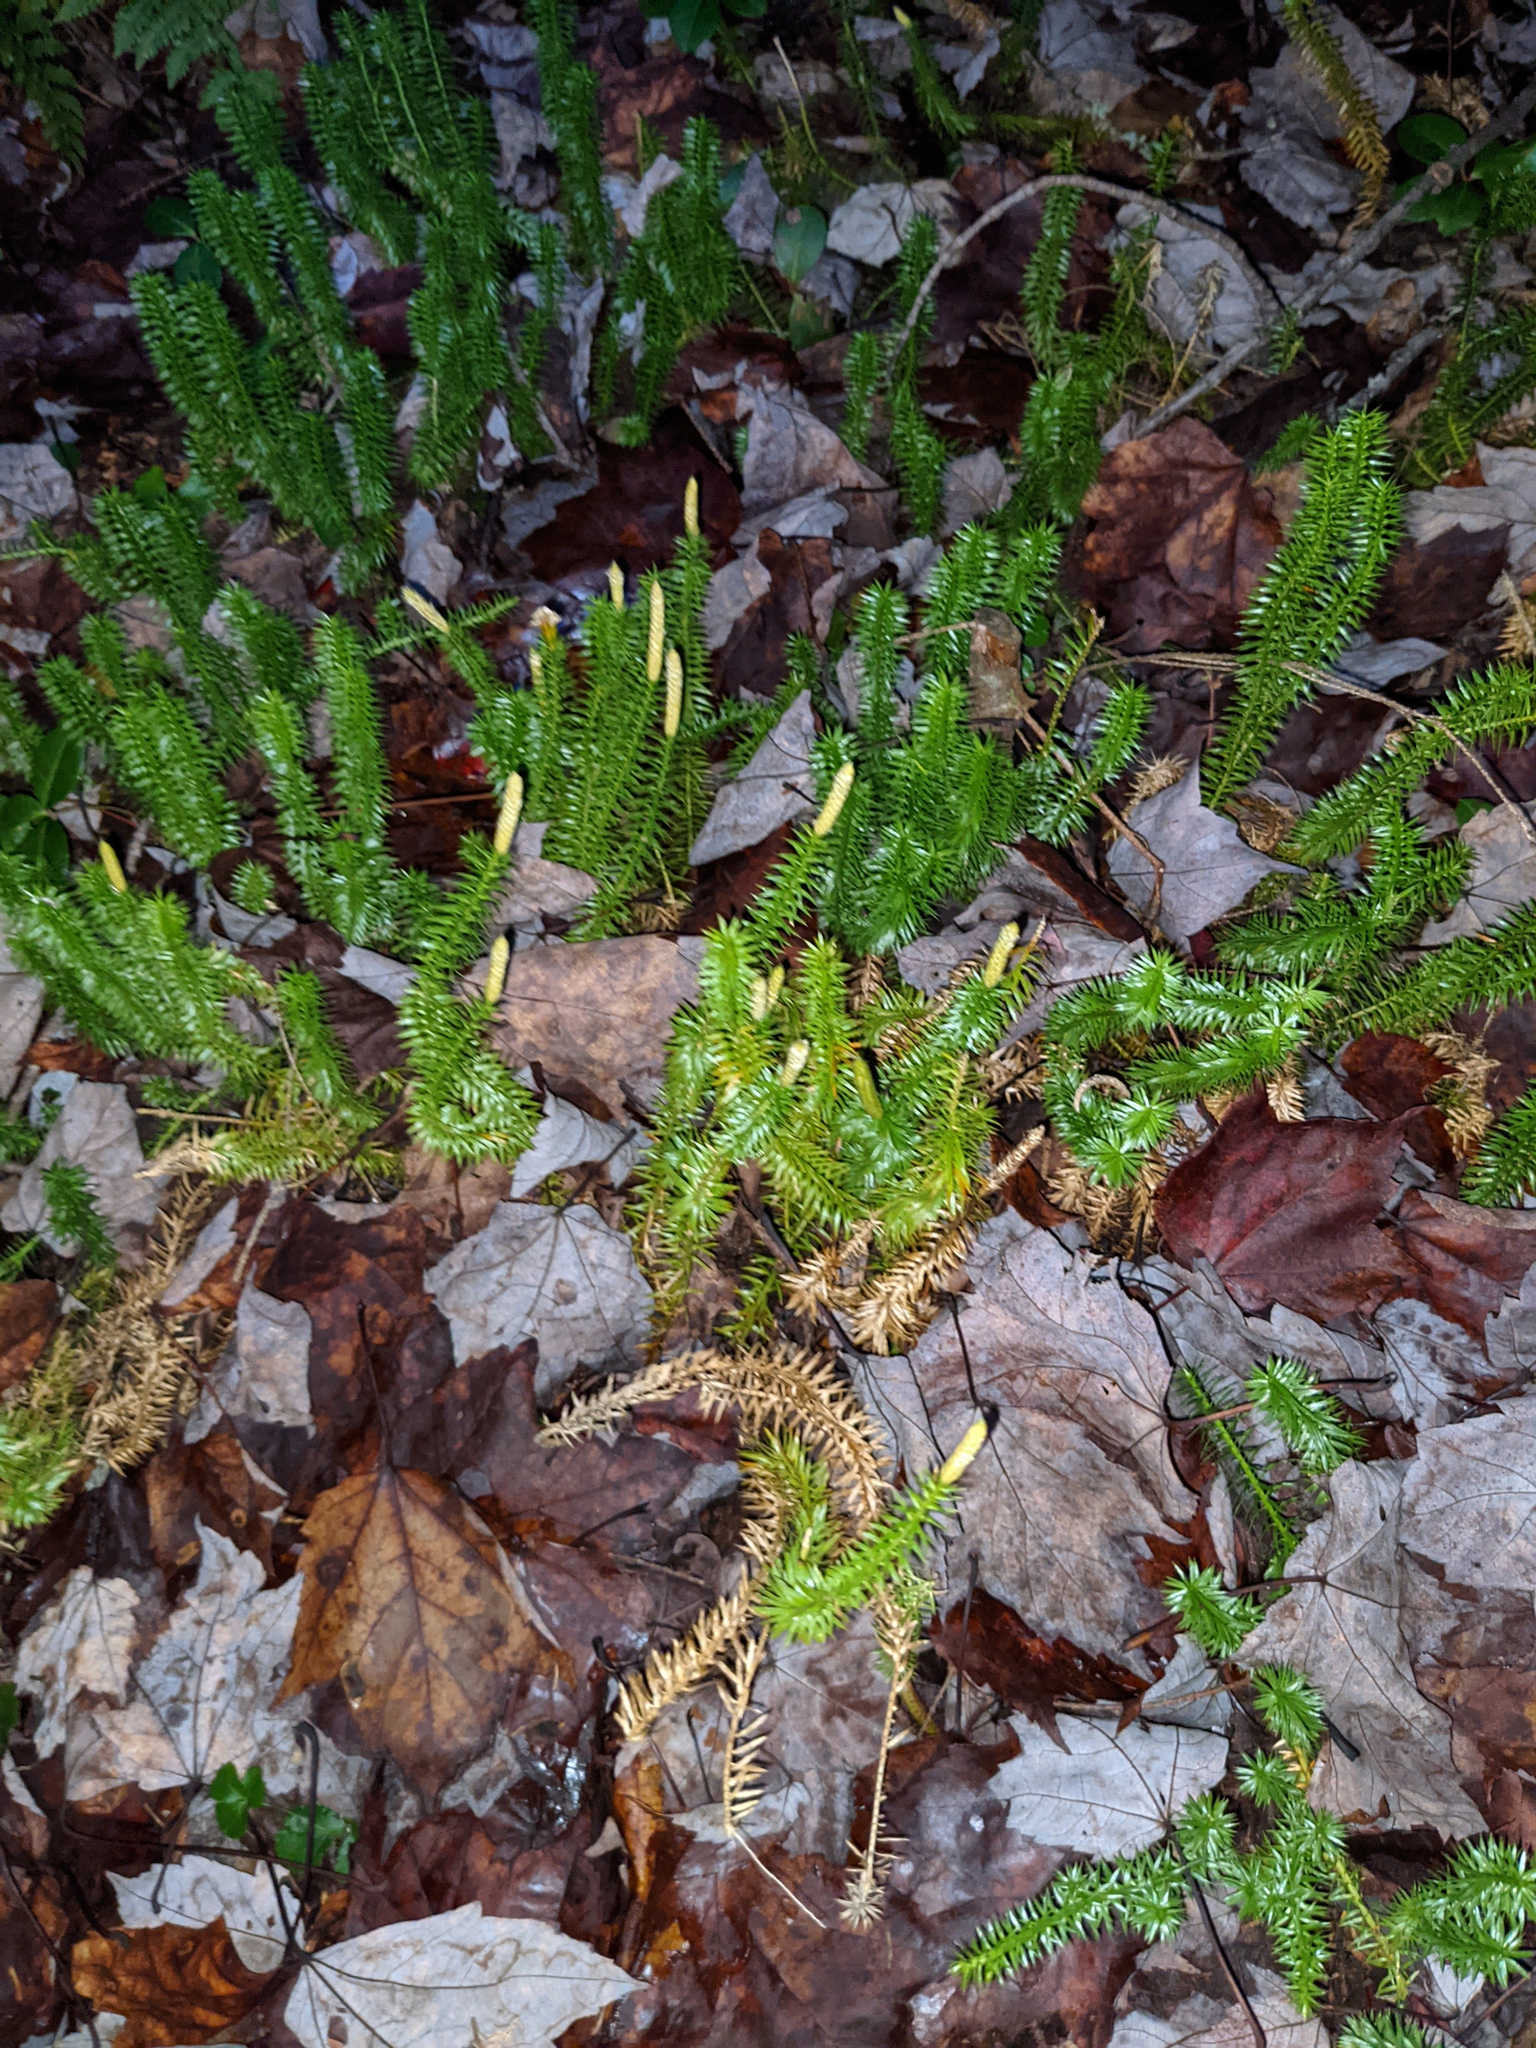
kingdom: Plantae
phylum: Tracheophyta
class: Lycopodiopsida
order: Lycopodiales
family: Lycopodiaceae
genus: Spinulum
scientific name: Spinulum annotinum
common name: Interrupted club-moss
